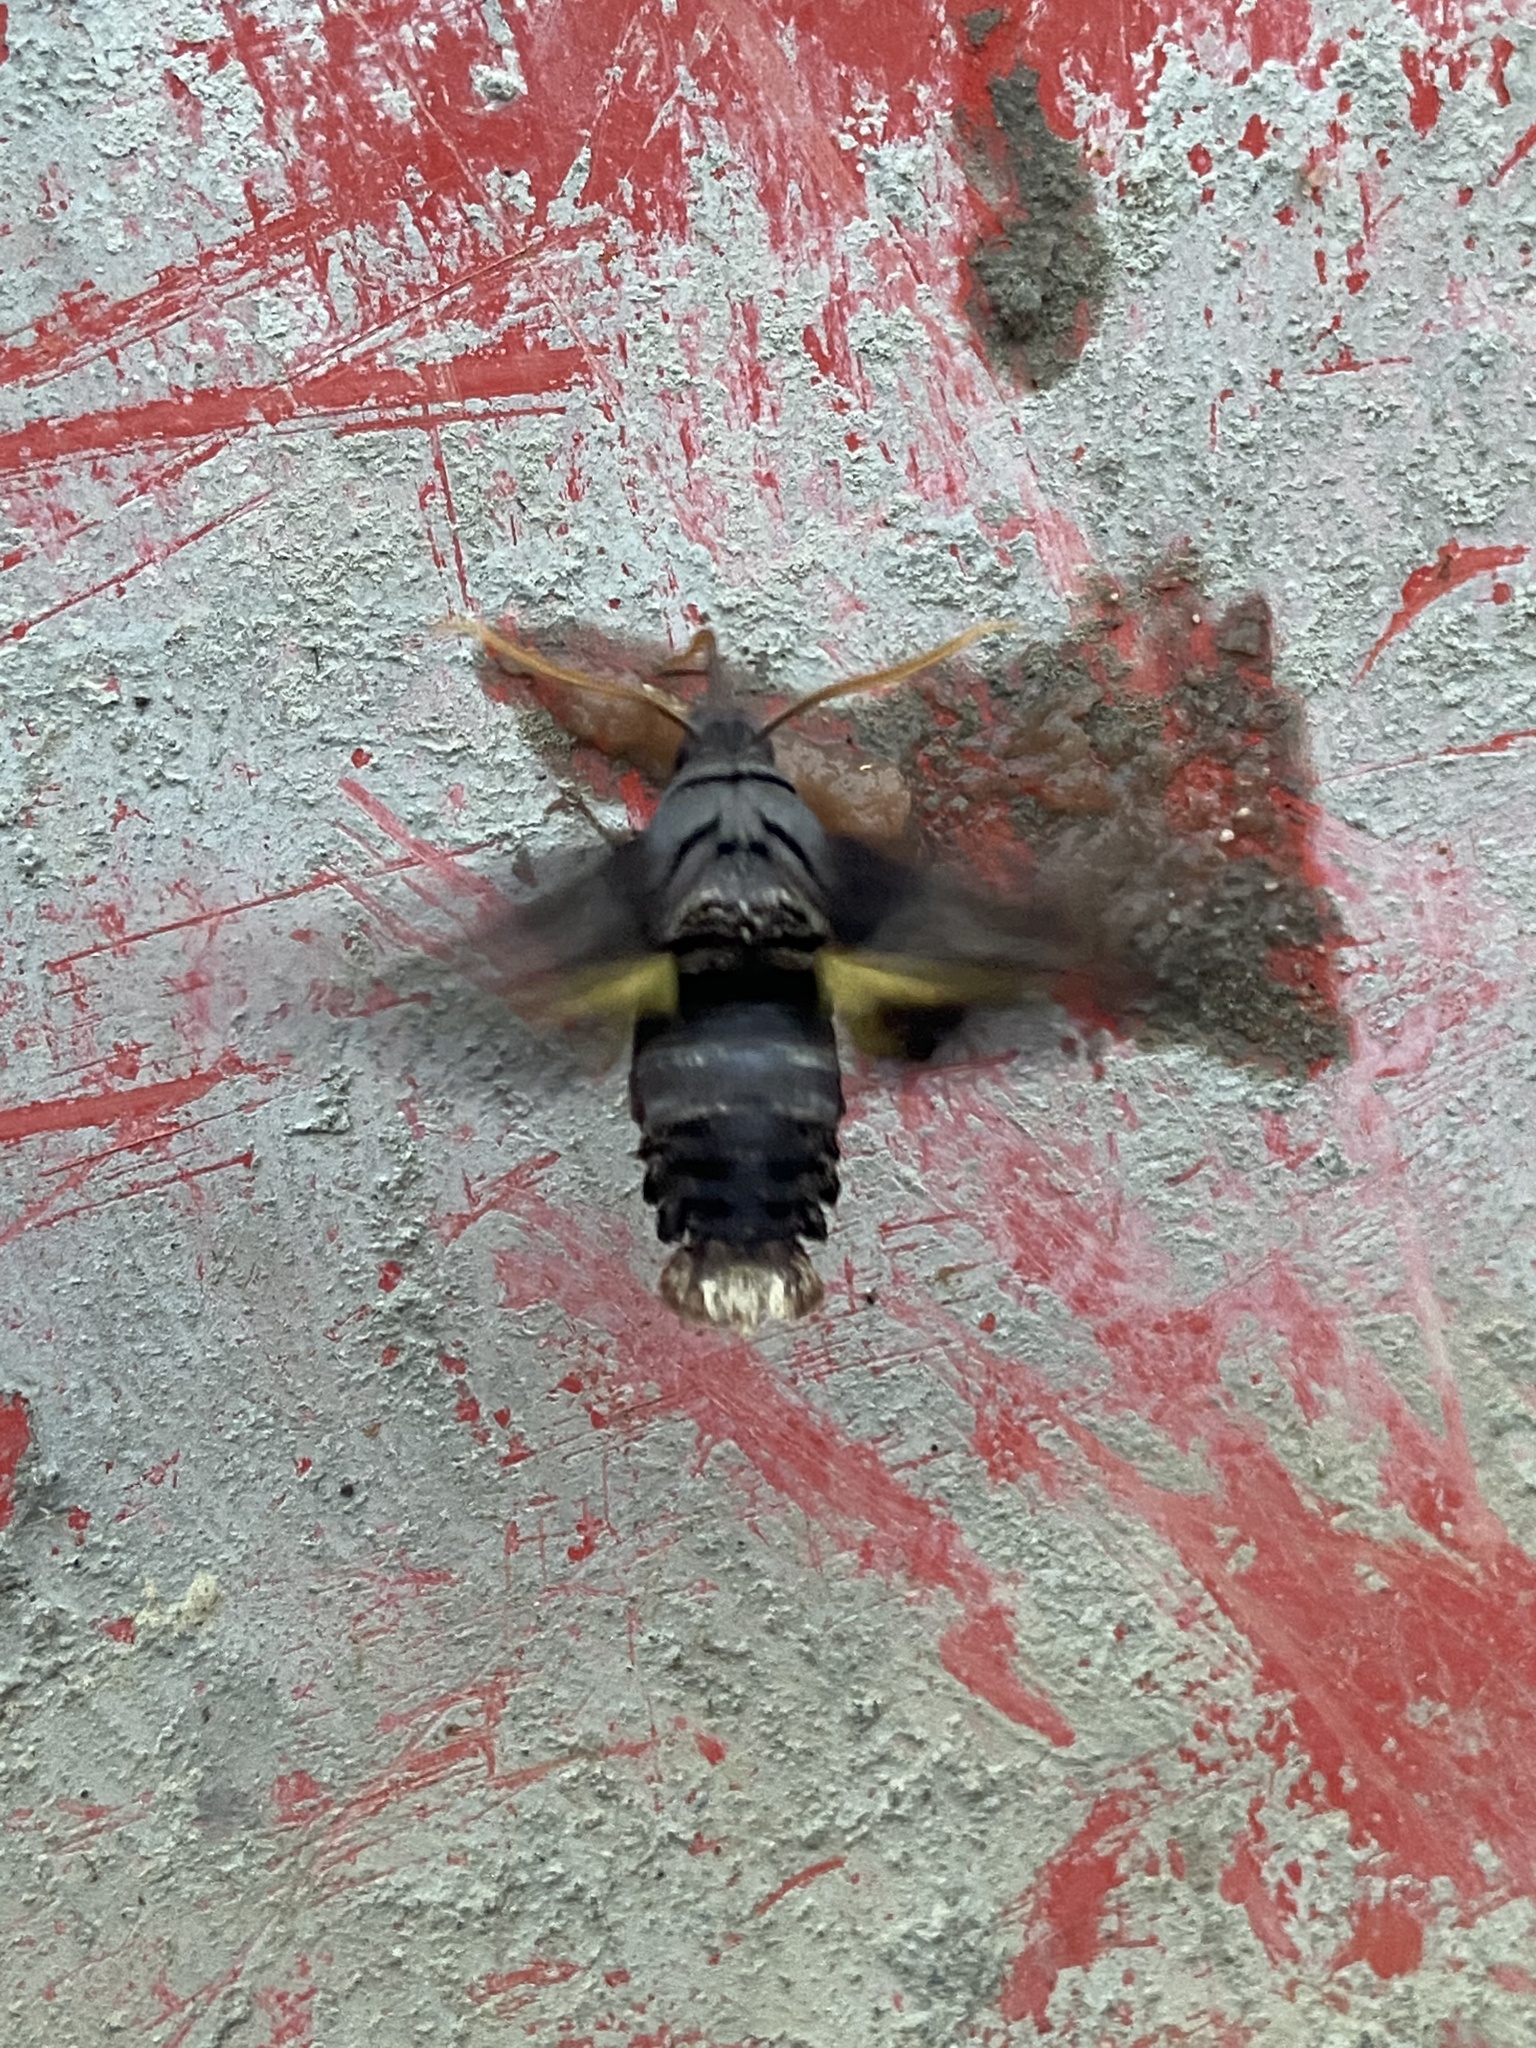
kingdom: Animalia
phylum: Arthropoda
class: Insecta
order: Lepidoptera
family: Sphingidae
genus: Sphecodina
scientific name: Sphecodina abbottii
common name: Abbott's sphinx
